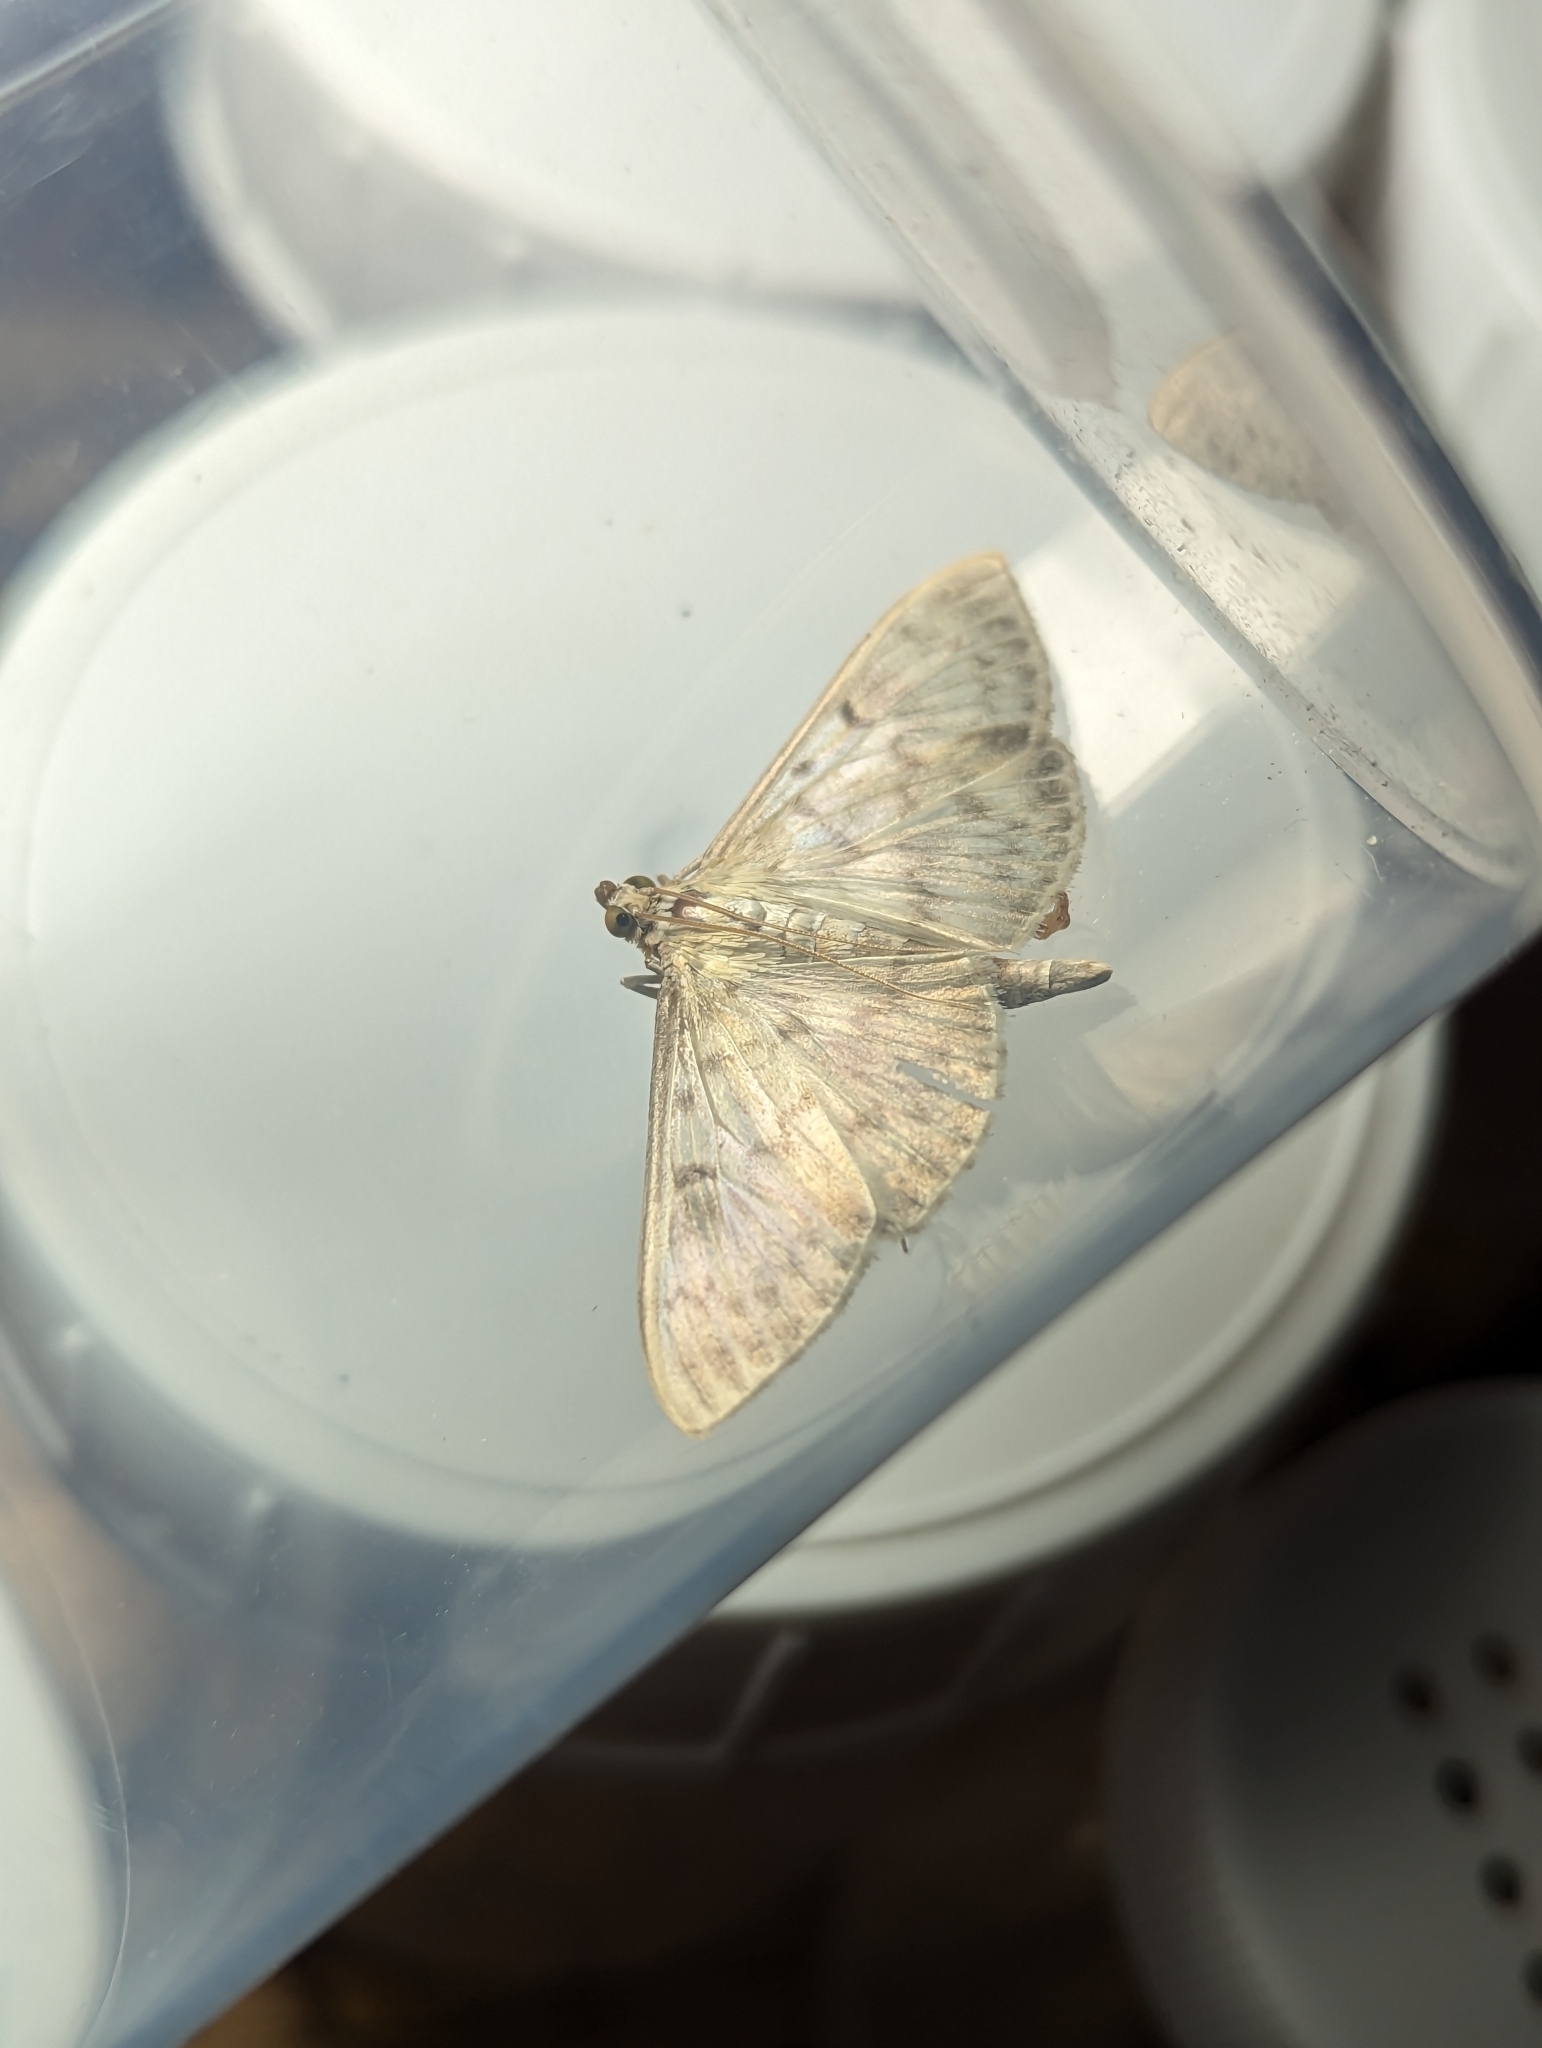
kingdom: Animalia
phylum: Arthropoda
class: Insecta
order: Lepidoptera
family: Crambidae
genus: Patania
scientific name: Patania ruralis
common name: Mother of pearl
